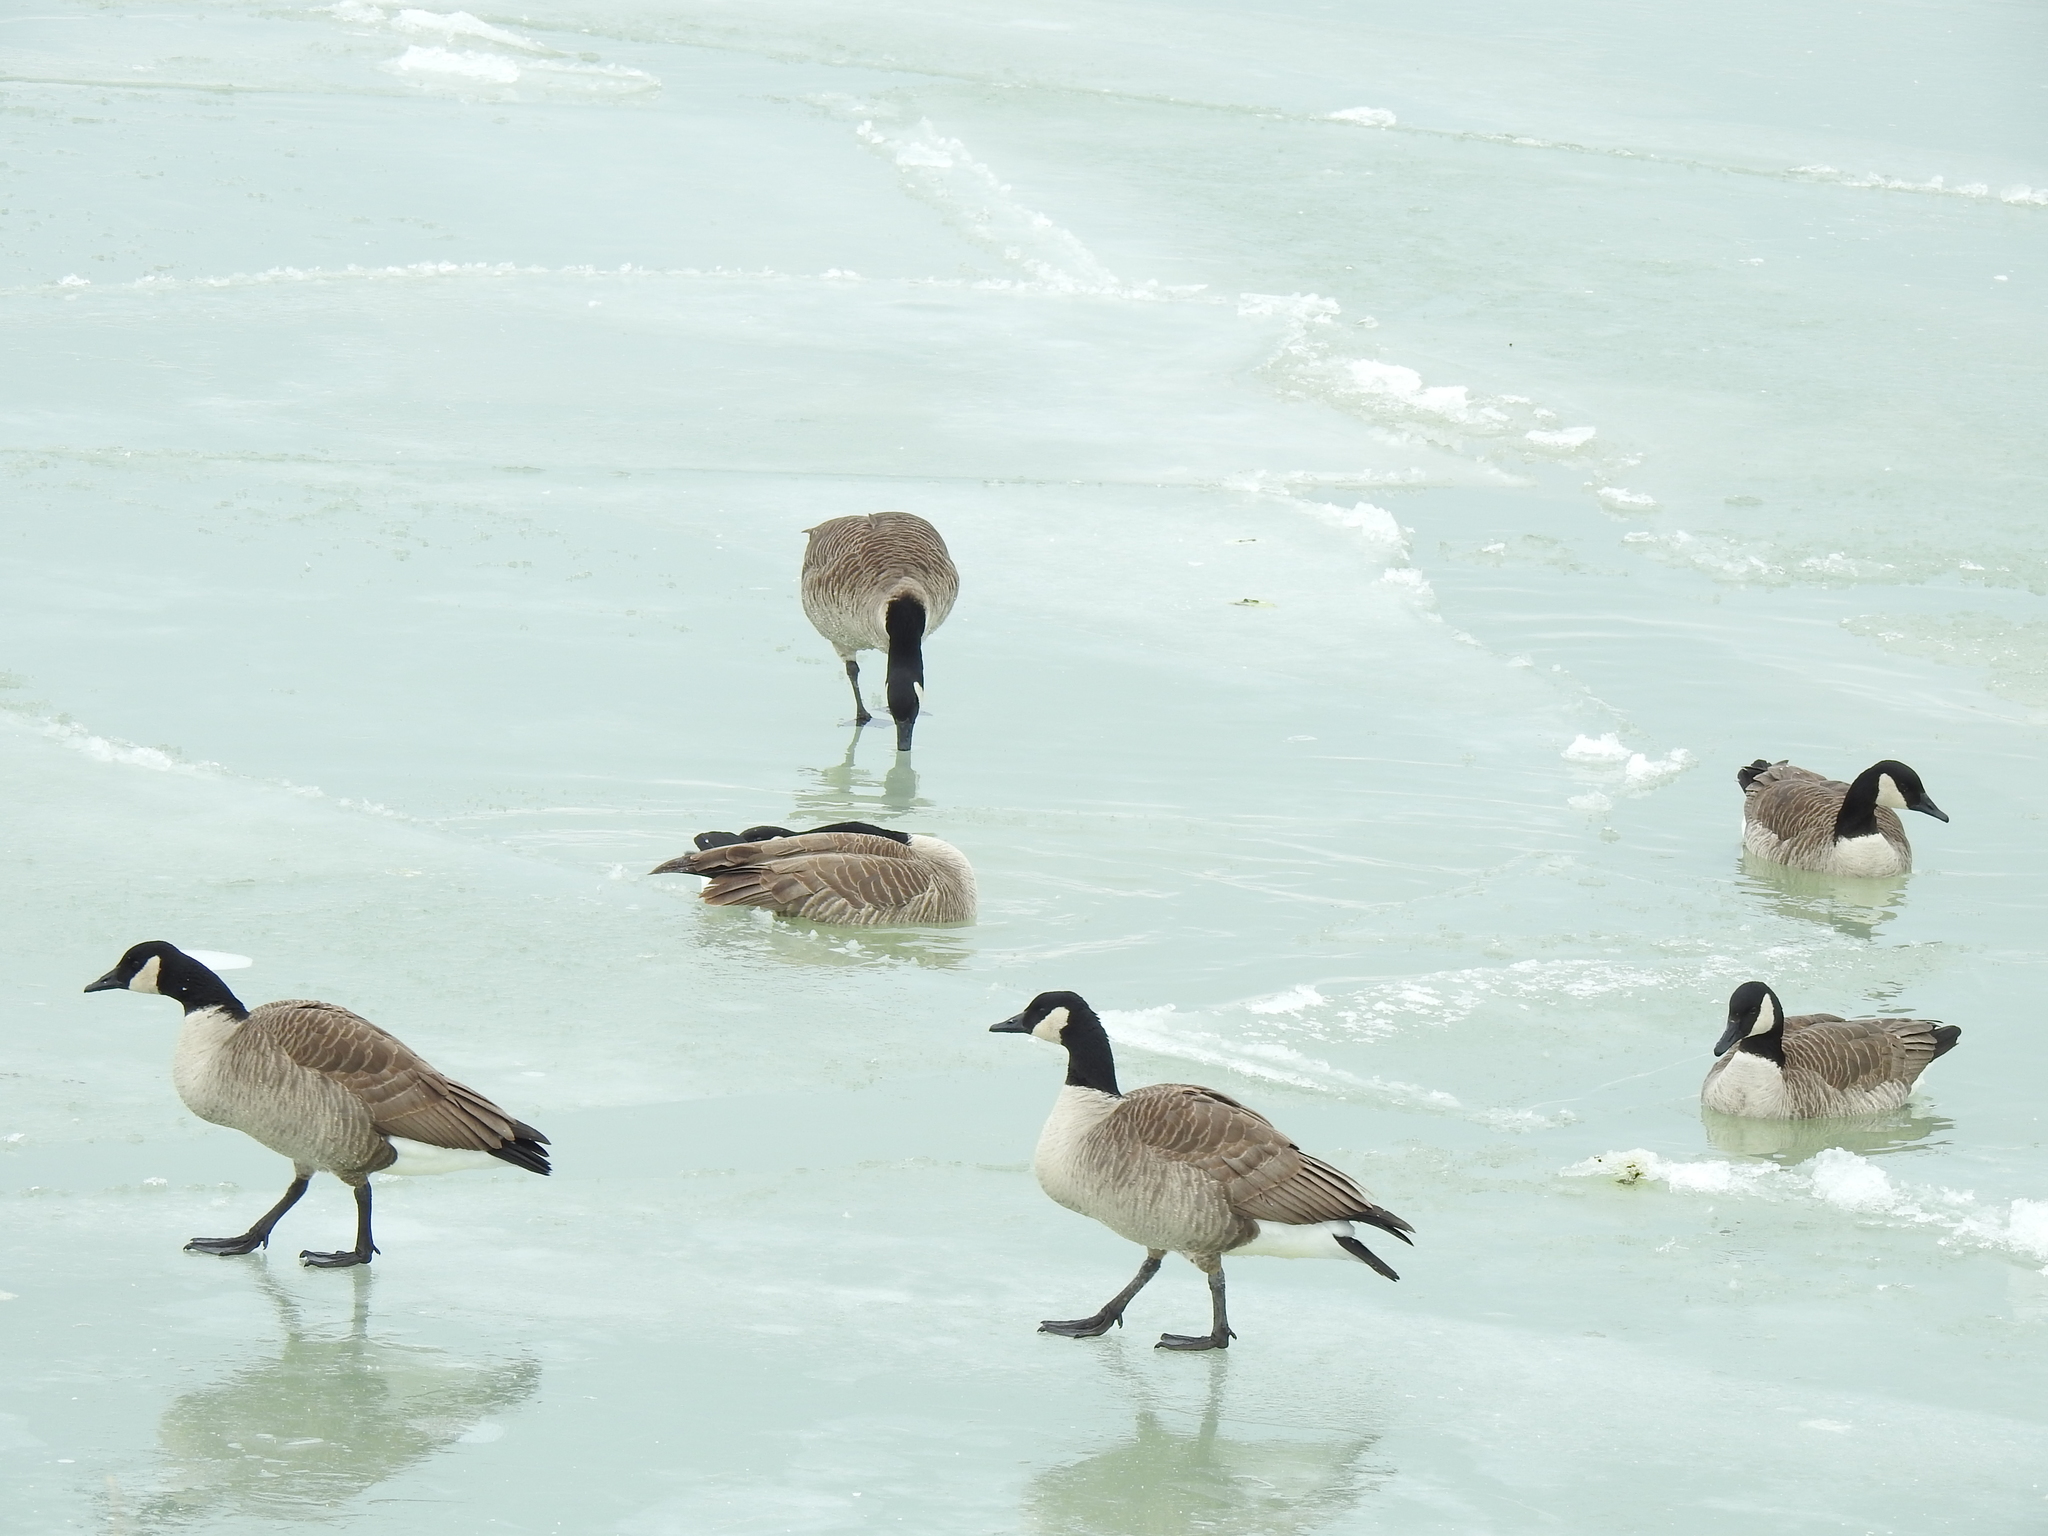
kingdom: Animalia
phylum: Chordata
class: Aves
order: Anseriformes
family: Anatidae
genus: Branta
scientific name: Branta canadensis
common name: Canada goose
